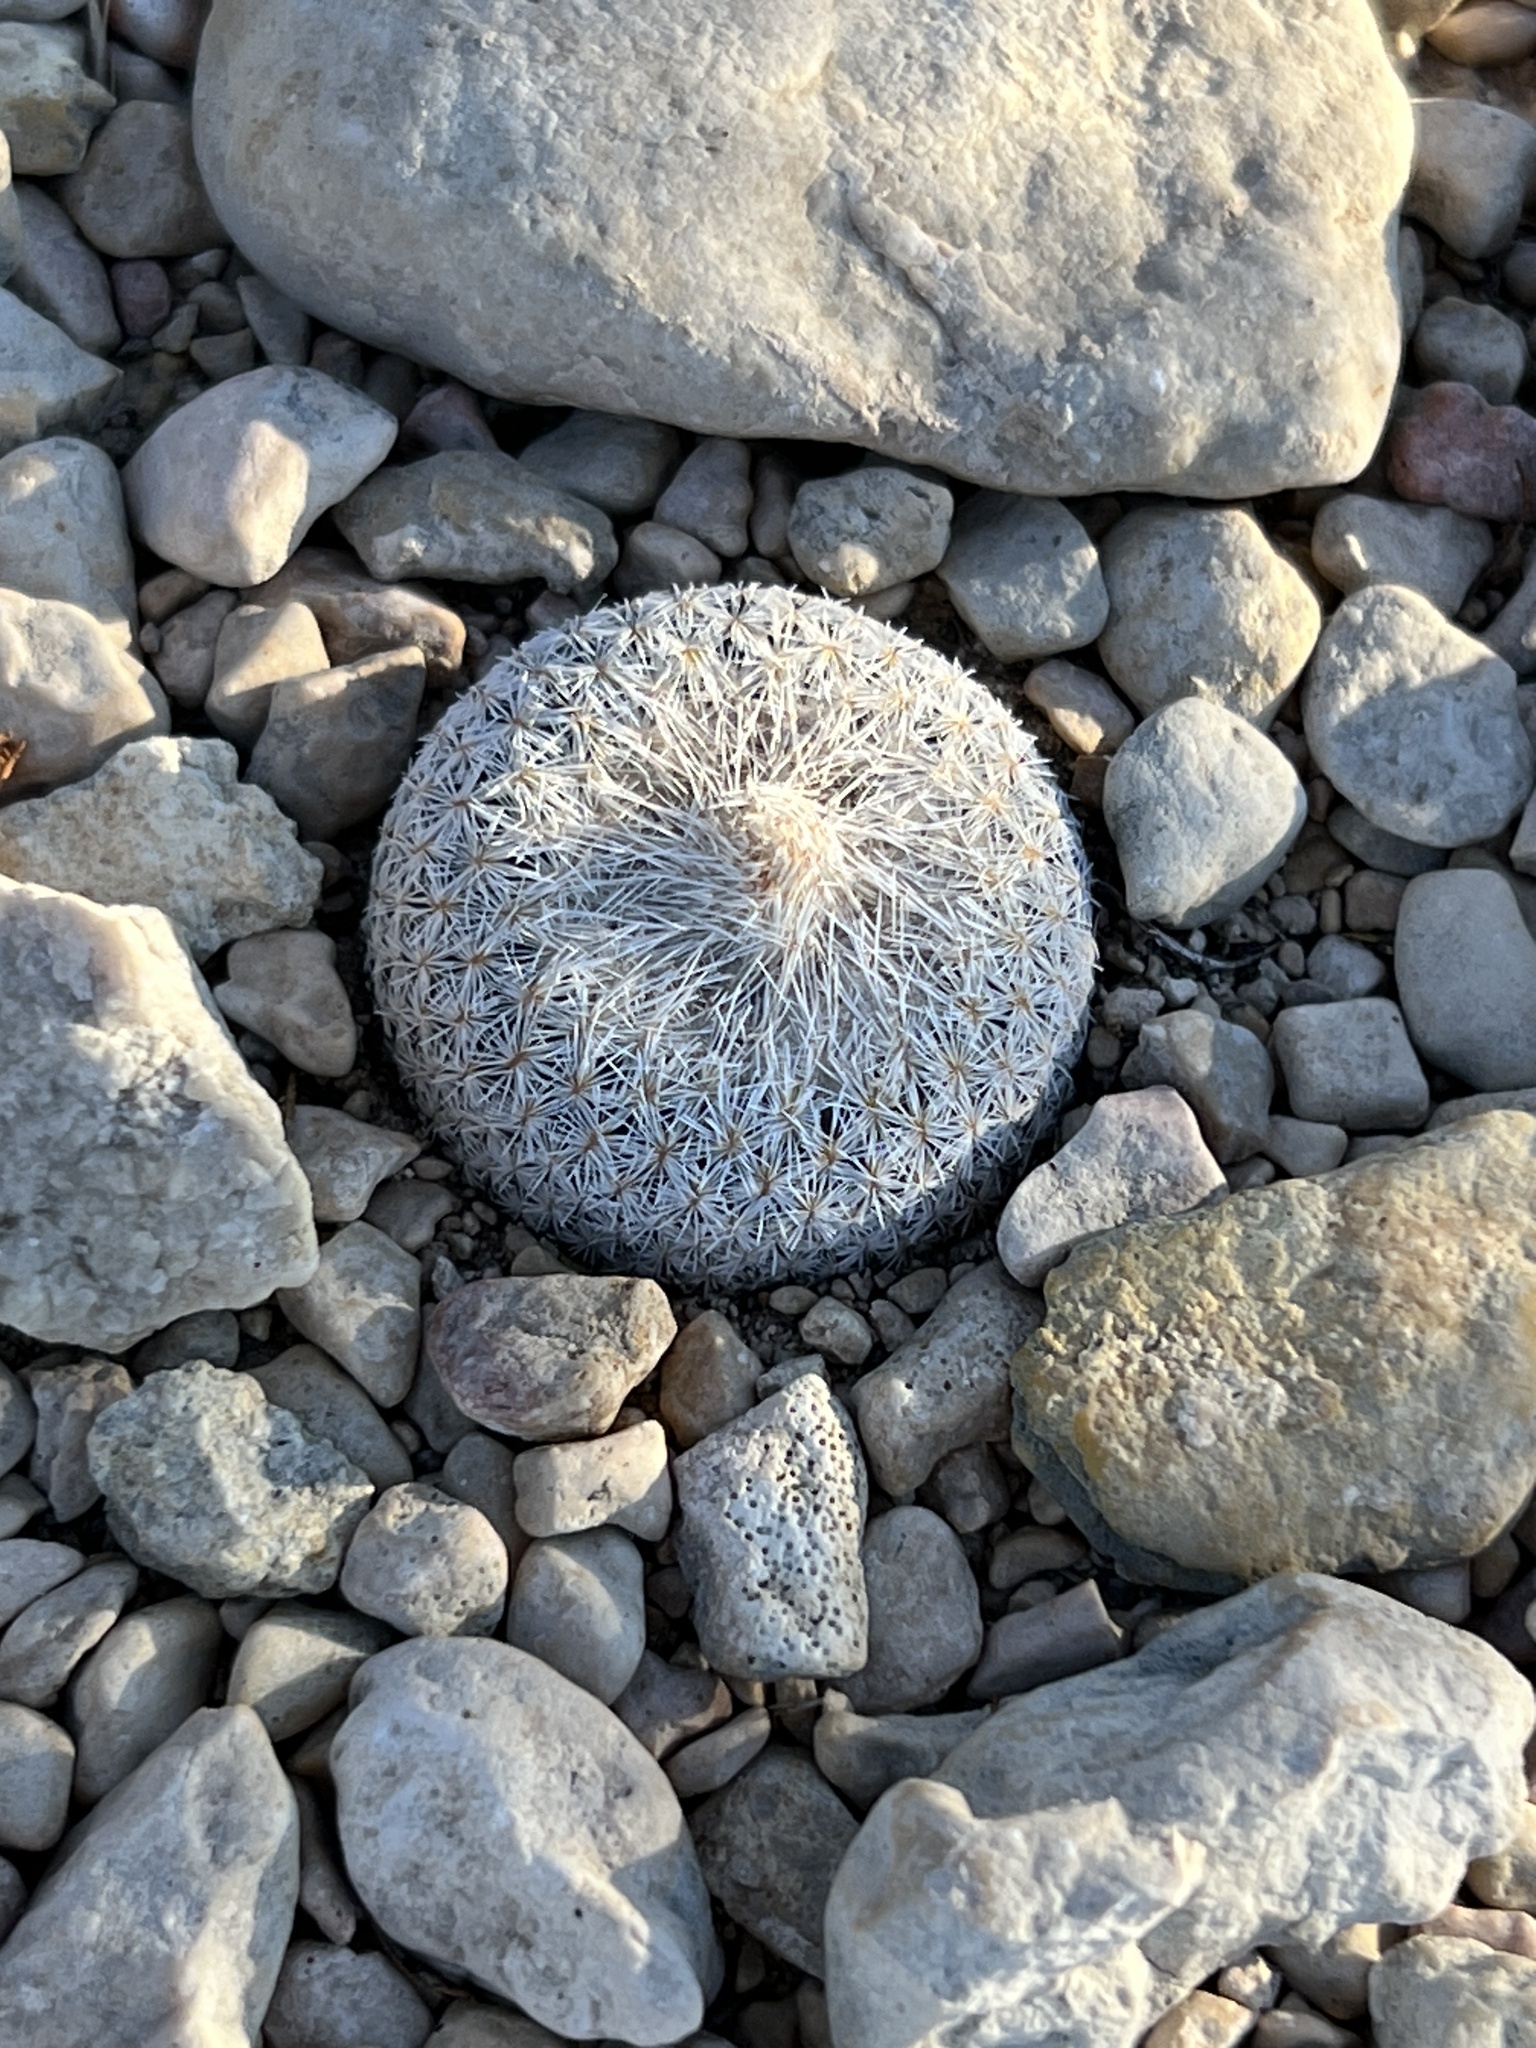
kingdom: Plantae
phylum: Tracheophyta
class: Magnoliopsida
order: Caryophyllales
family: Cactaceae
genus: Epithelantha
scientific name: Epithelantha micromeris
